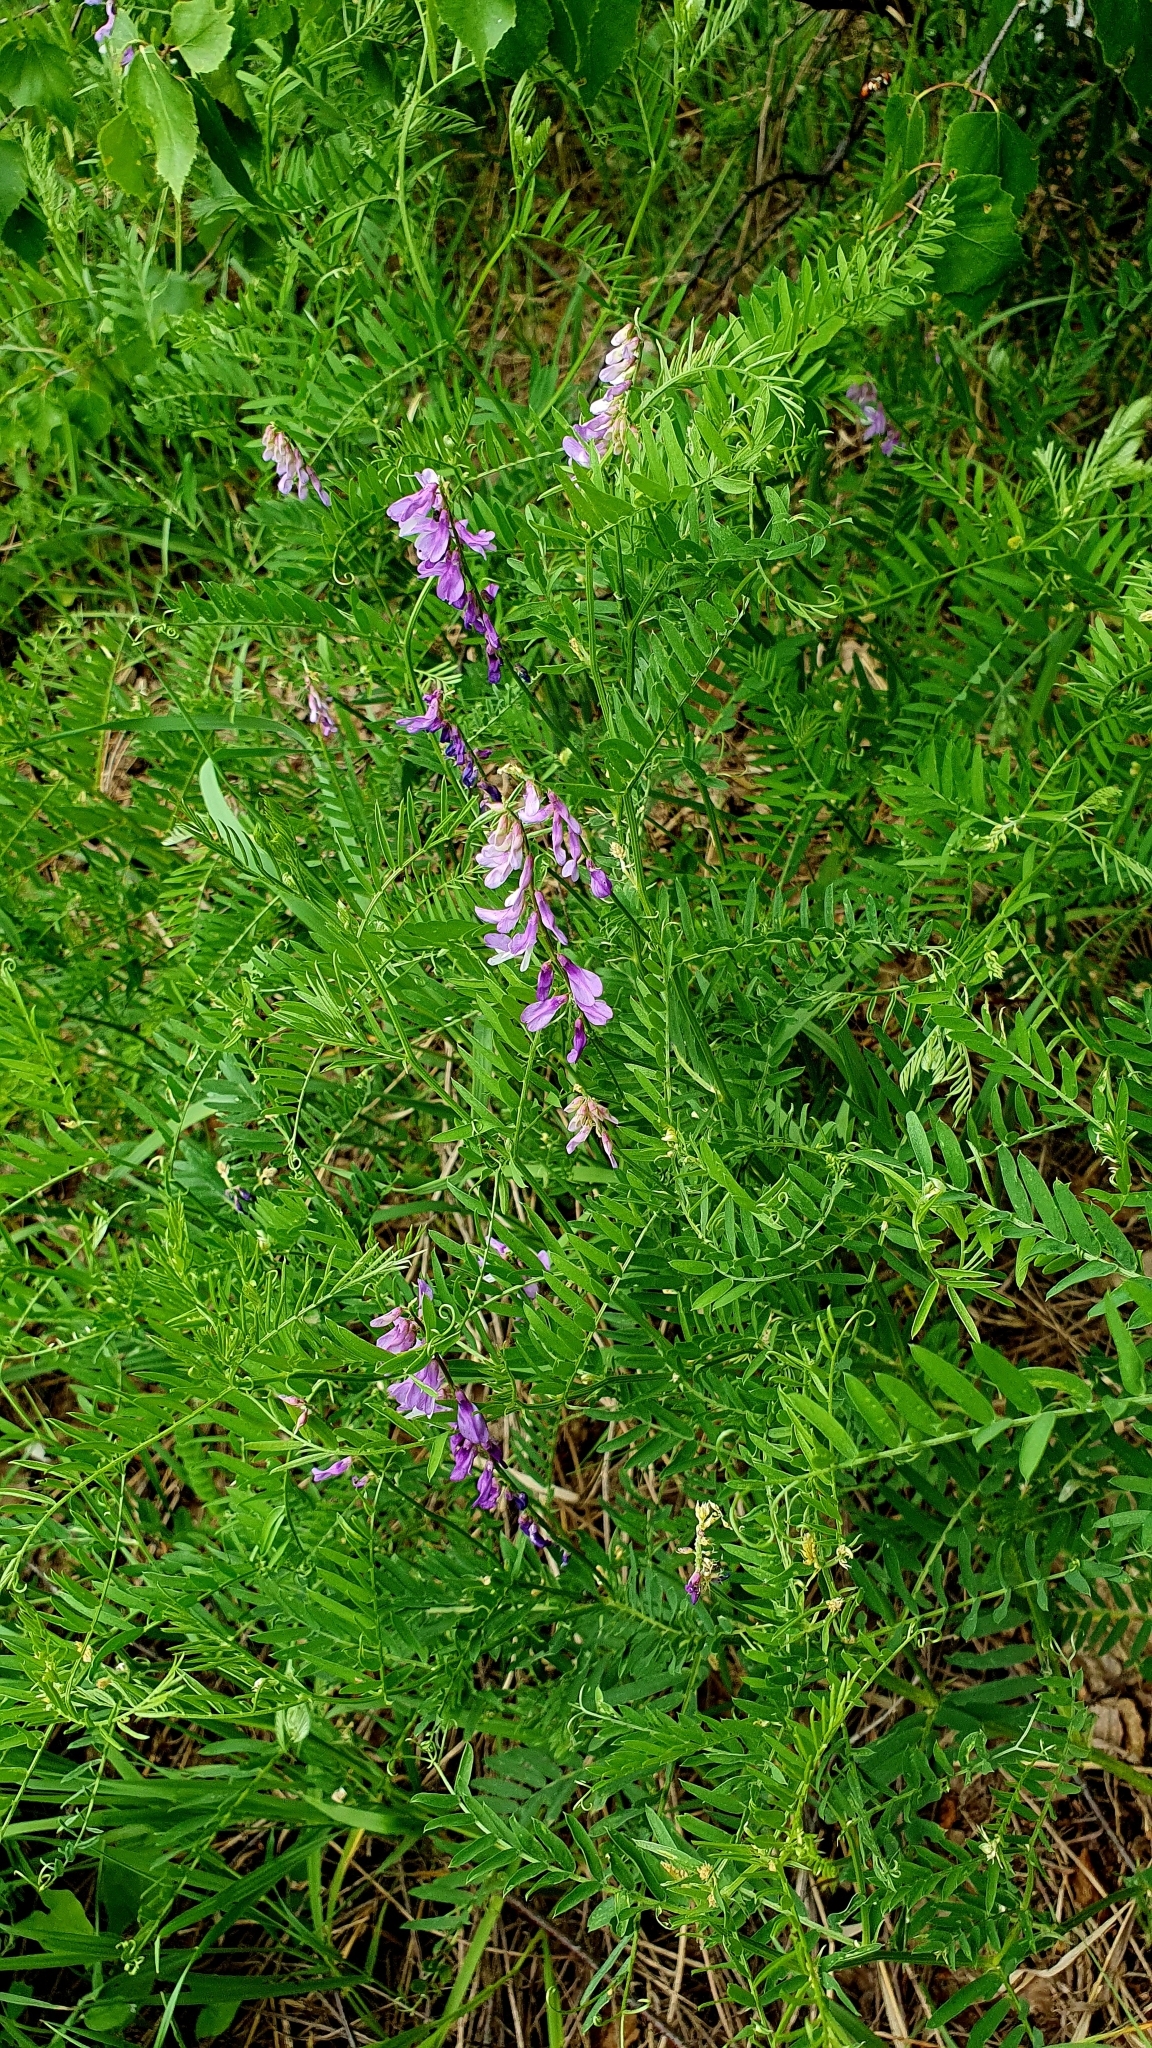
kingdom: Plantae
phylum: Tracheophyta
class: Magnoliopsida
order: Fabales
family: Fabaceae
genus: Vicia
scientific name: Vicia tenuifolia
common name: Fine-leaved vetch
